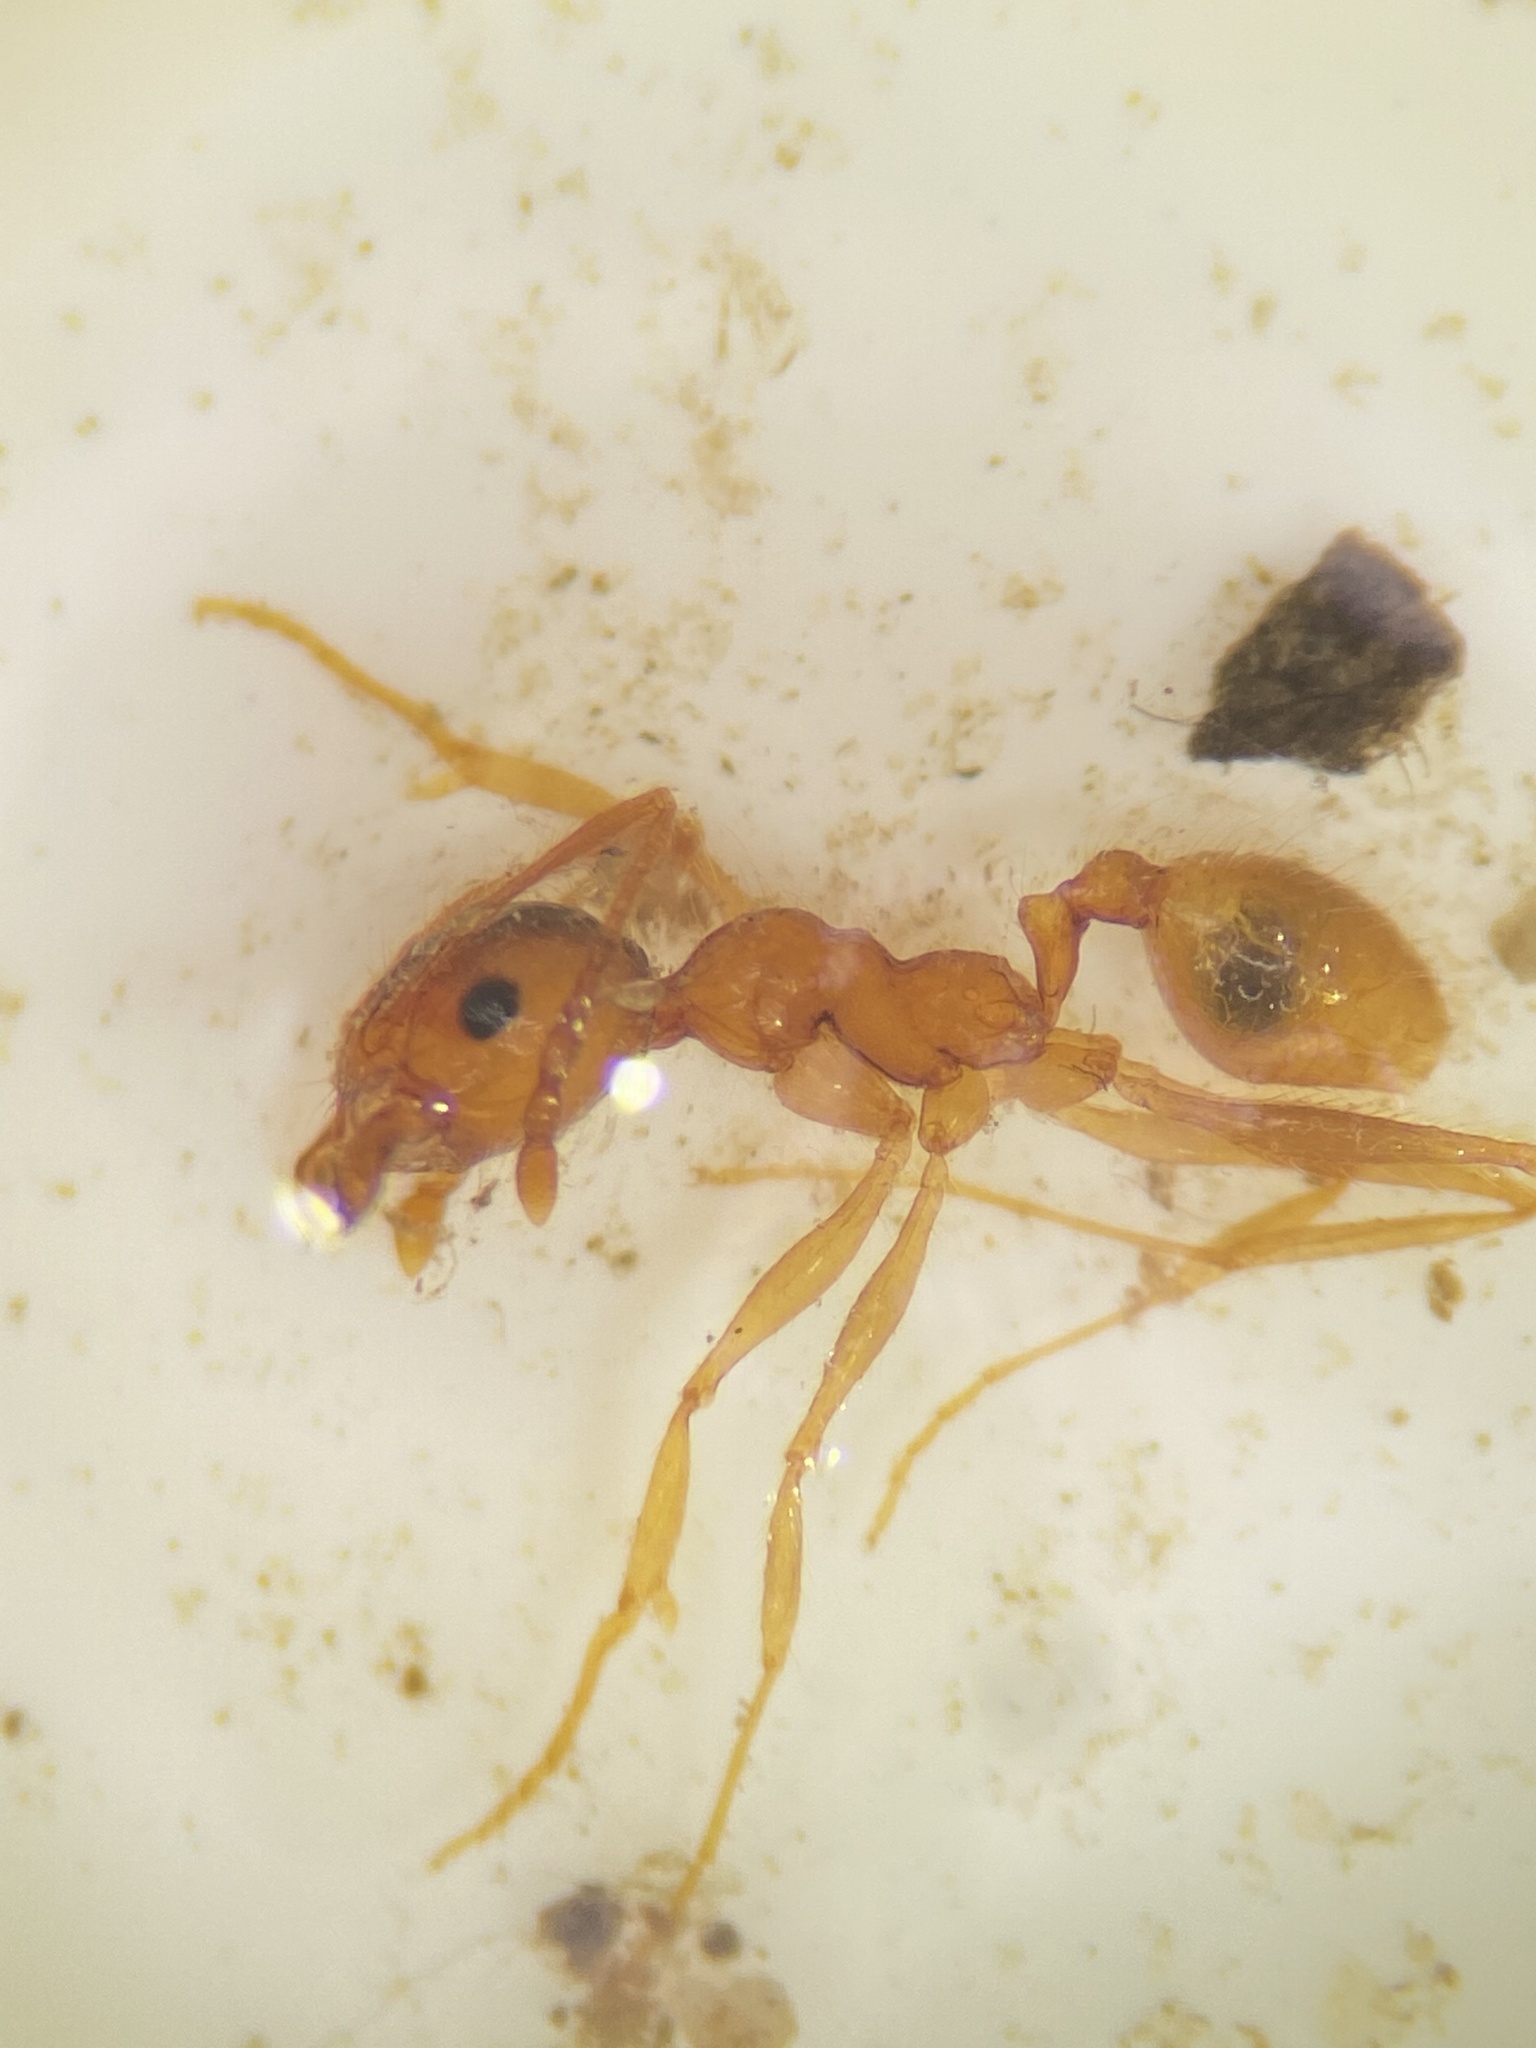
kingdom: Animalia
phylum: Arthropoda
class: Insecta
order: Hymenoptera
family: Formicidae
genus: Pheidole
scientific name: Pheidole morrisii
